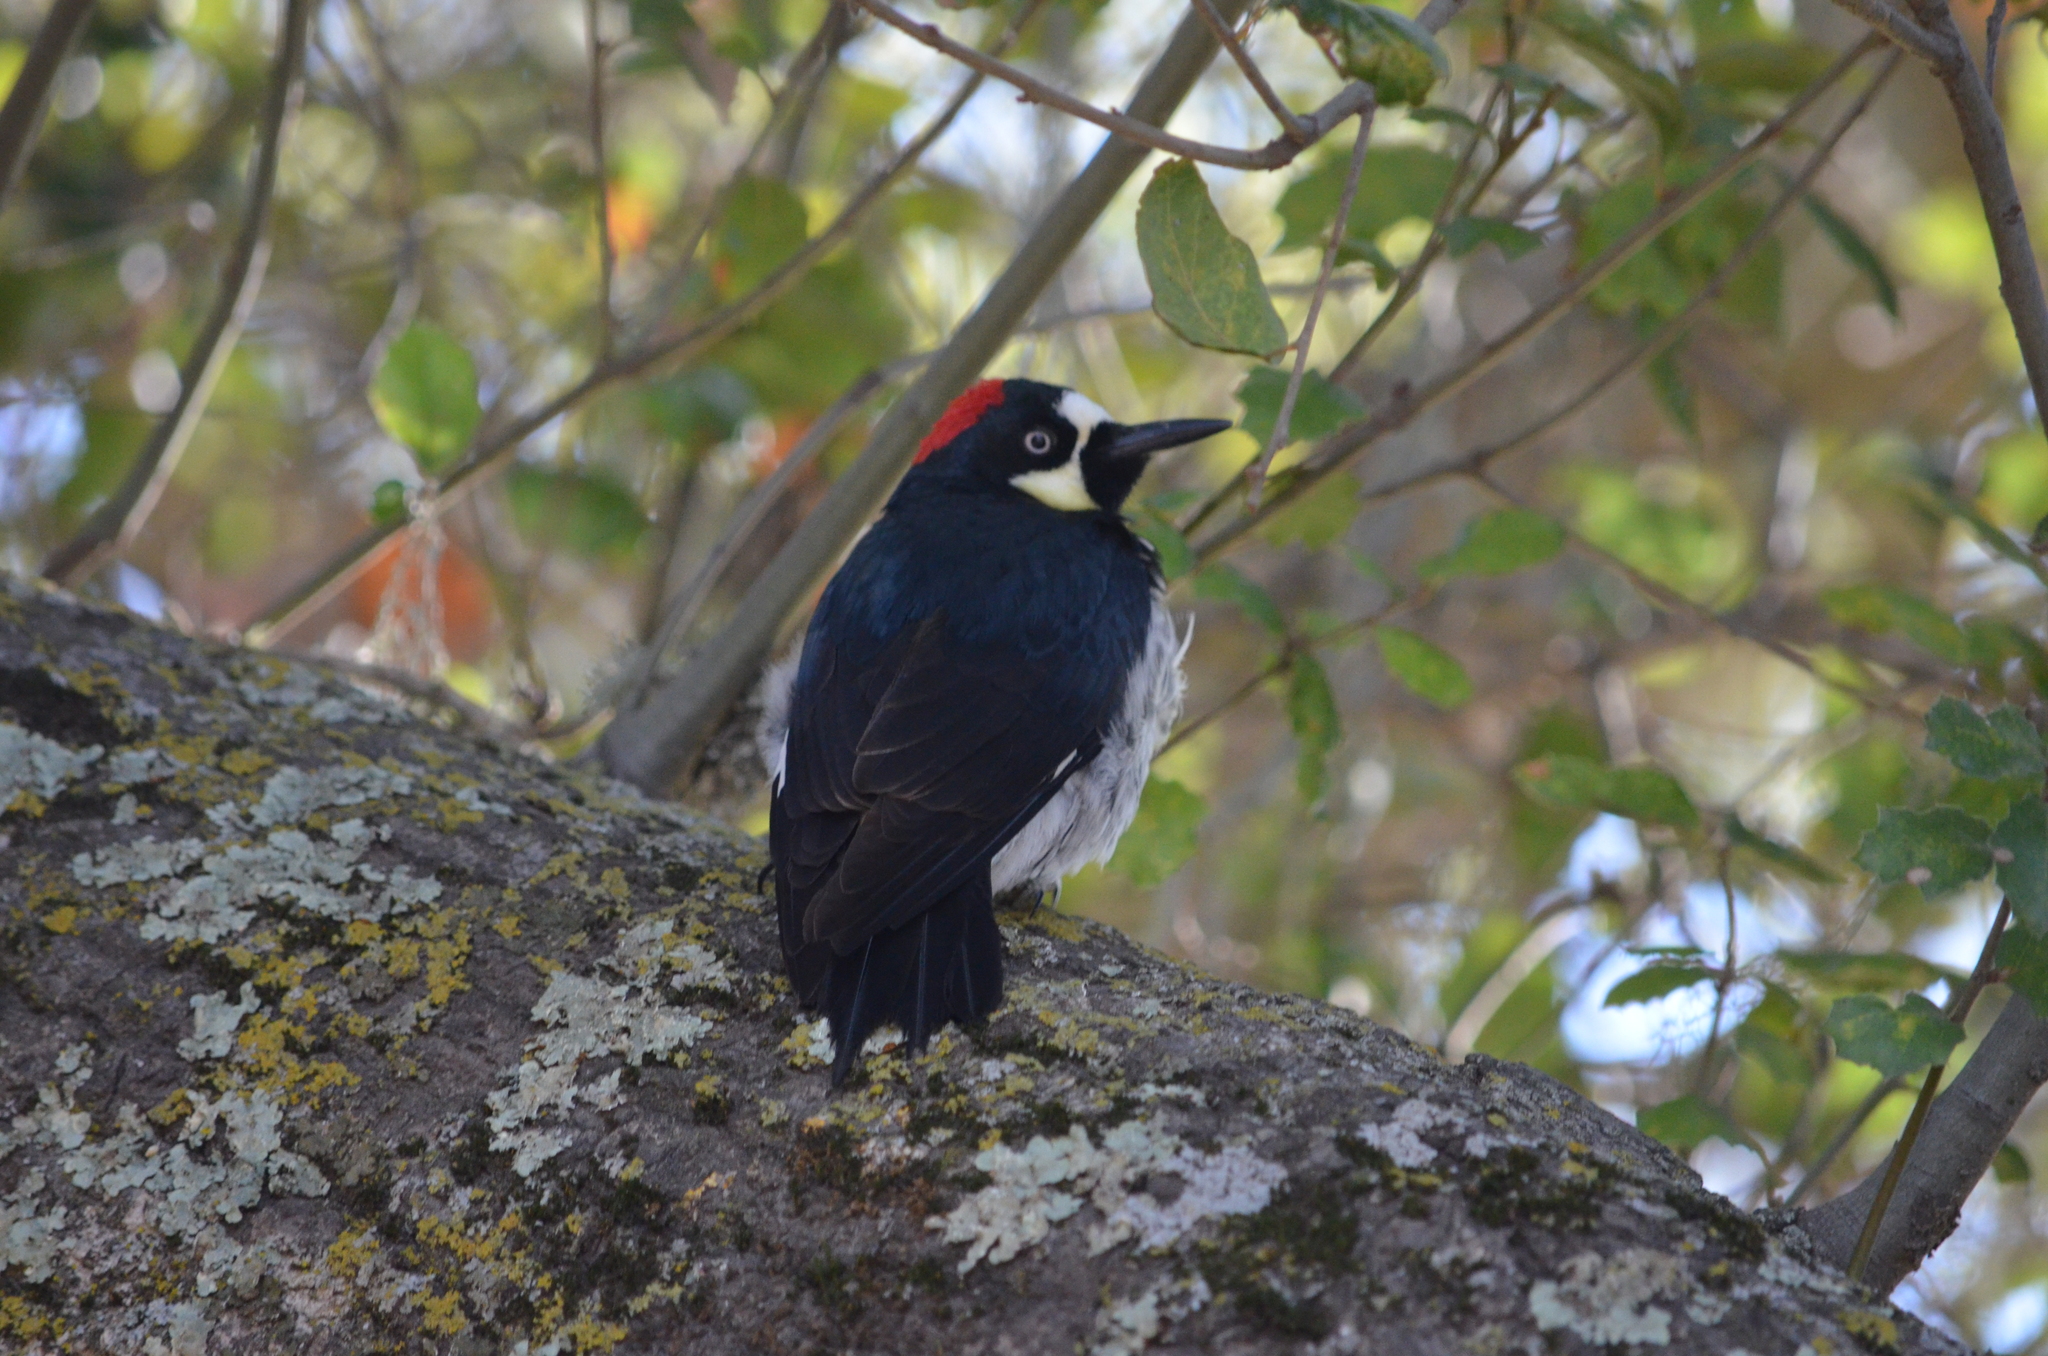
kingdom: Animalia
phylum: Chordata
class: Aves
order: Piciformes
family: Picidae
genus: Melanerpes
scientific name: Melanerpes formicivorus
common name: Acorn woodpecker
